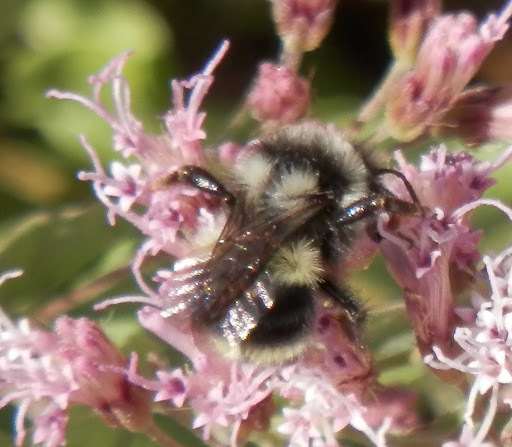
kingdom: Animalia
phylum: Arthropoda
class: Insecta
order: Hymenoptera
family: Apidae
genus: Bombus
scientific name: Bombus vancouverensis
